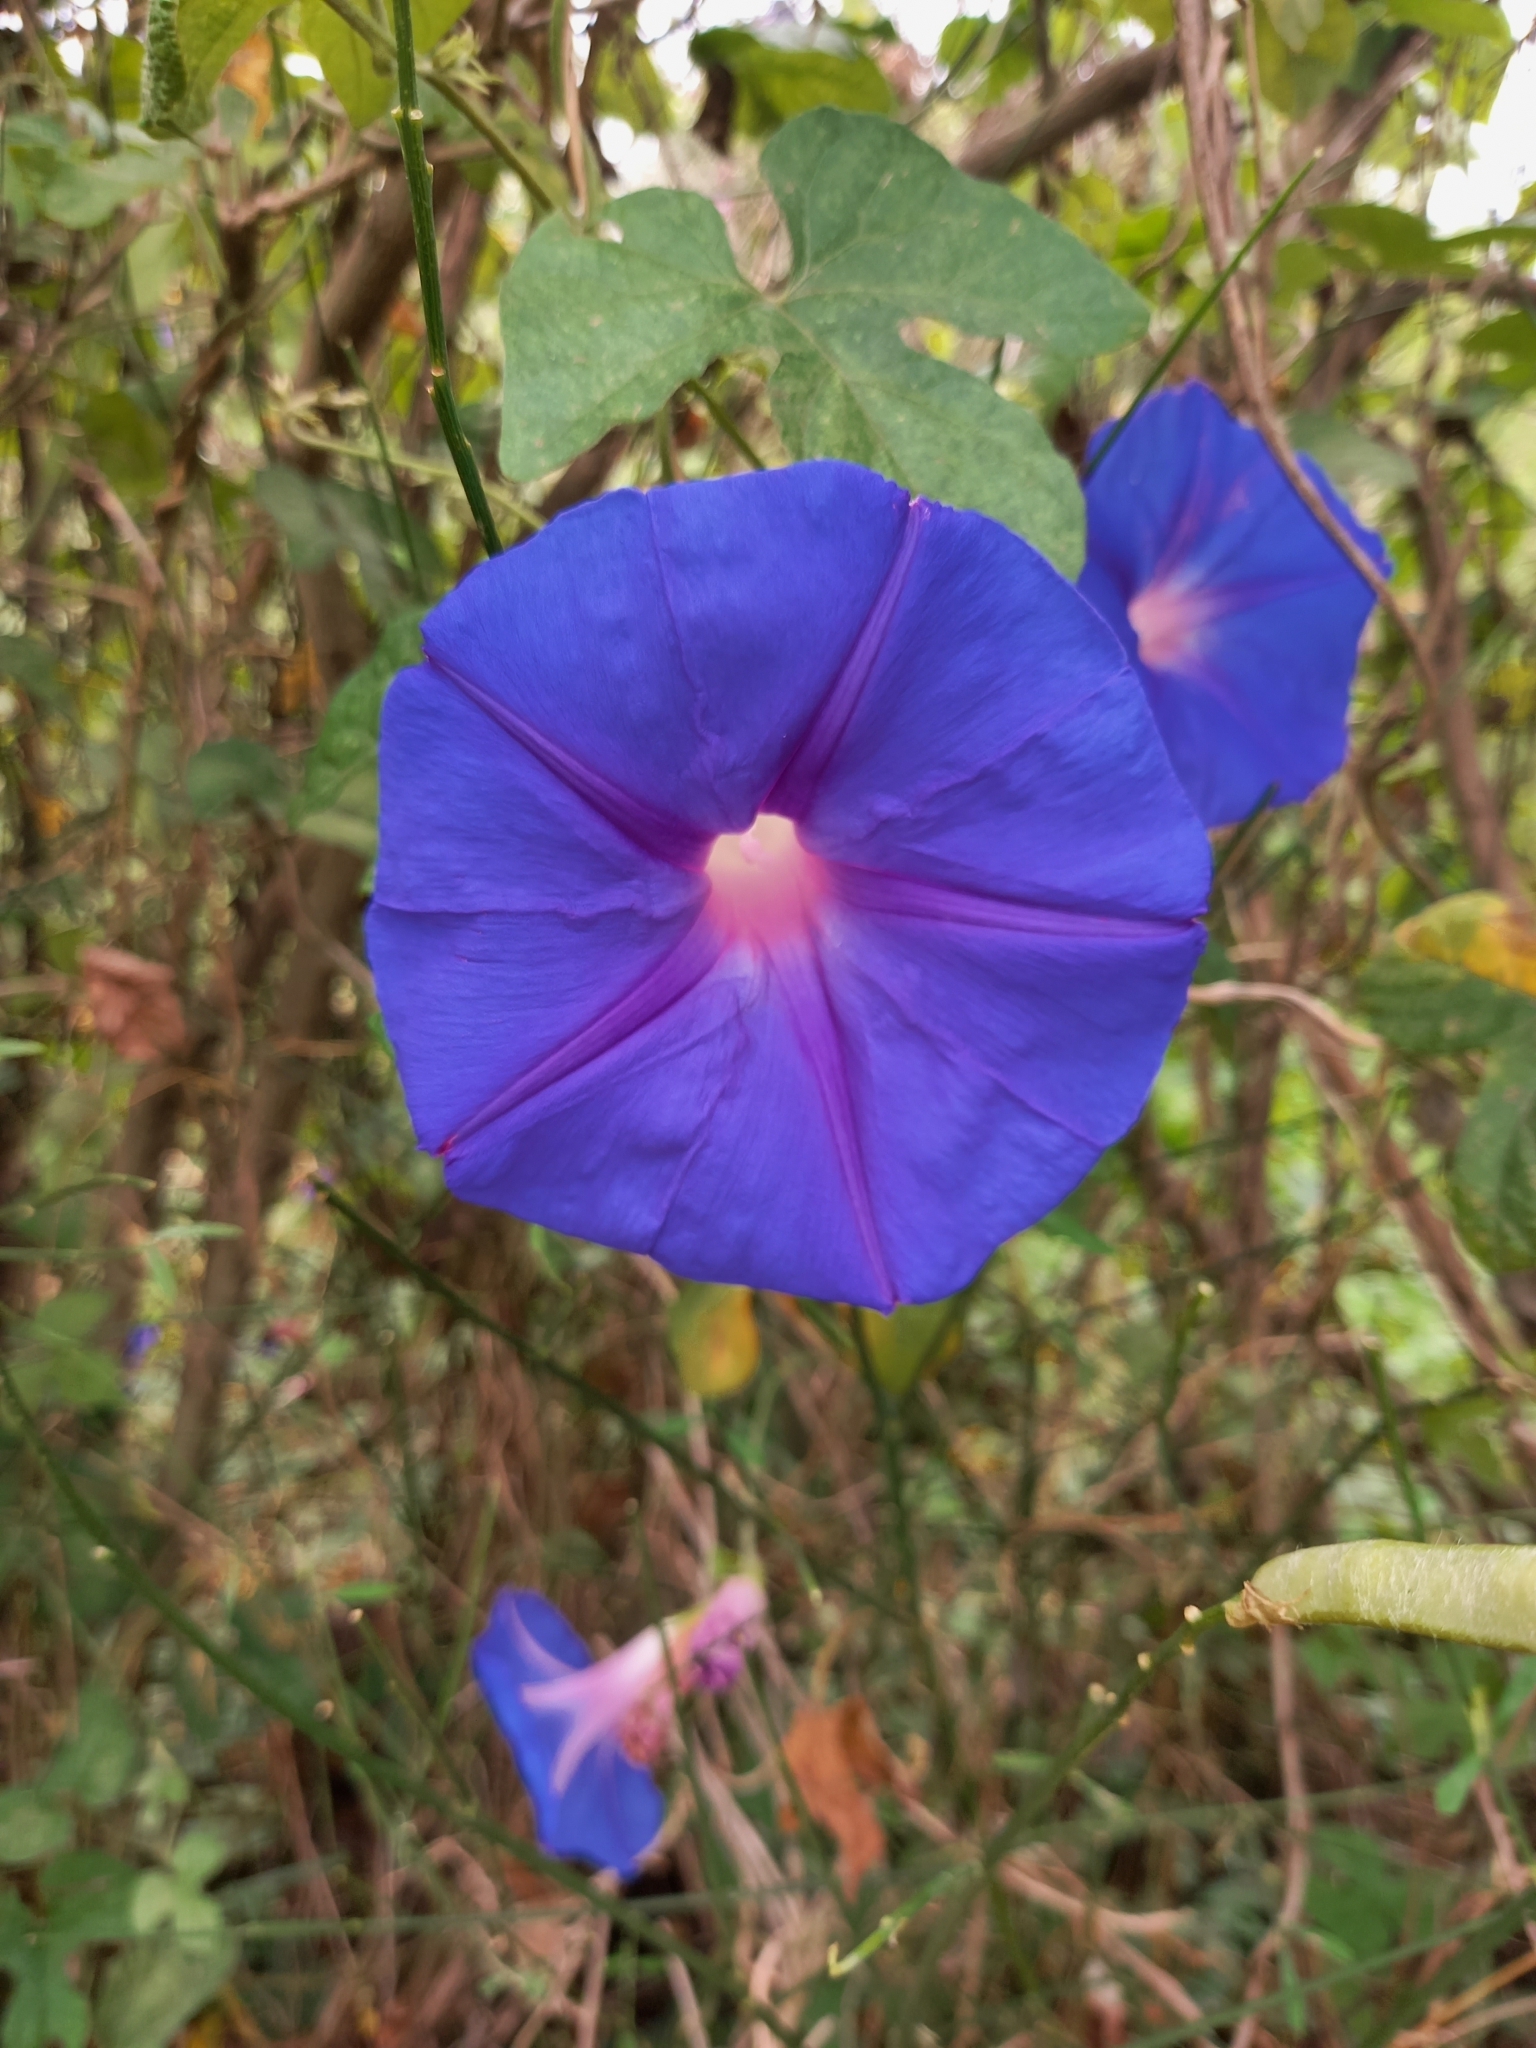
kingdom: Plantae
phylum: Tracheophyta
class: Magnoliopsida
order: Solanales
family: Convolvulaceae
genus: Ipomoea
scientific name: Ipomoea indica
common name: Blue dawnflower
